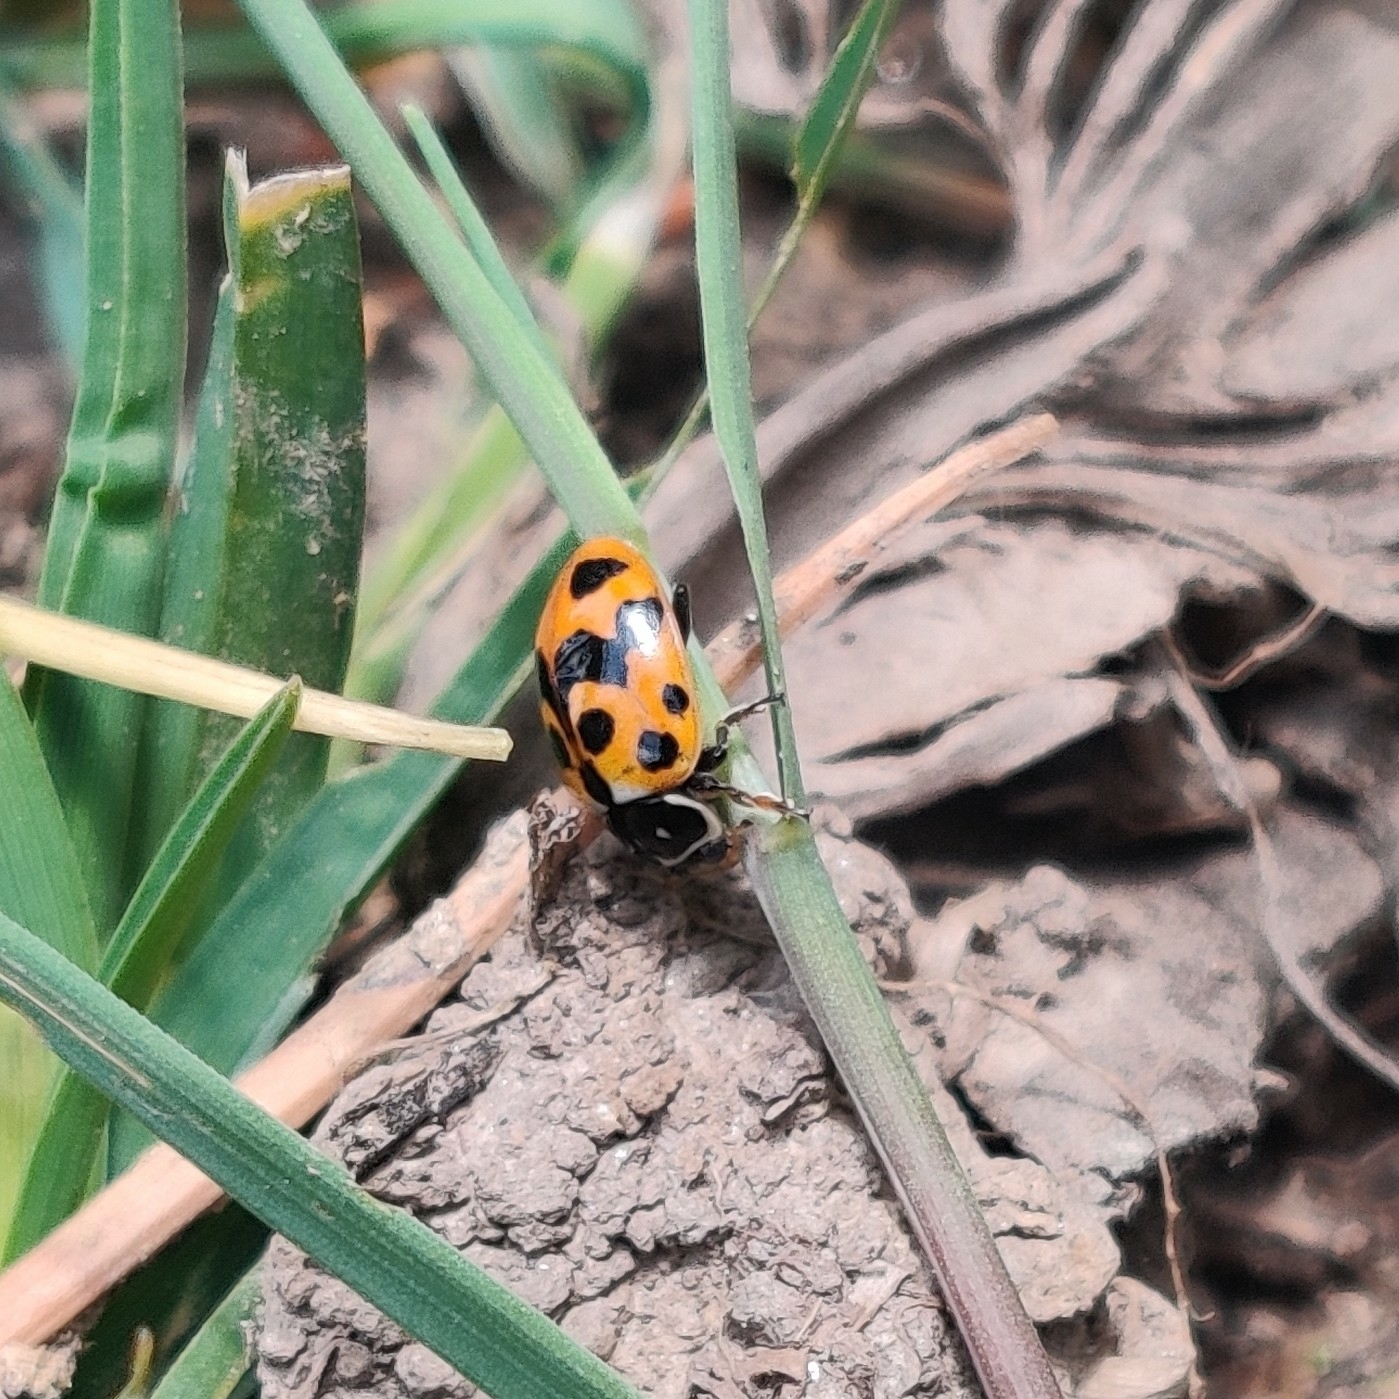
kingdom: Animalia
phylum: Arthropoda
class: Insecta
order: Coleoptera
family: Coccinellidae
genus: Hippodamia
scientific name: Hippodamia variegata
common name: Ladybird beetle
